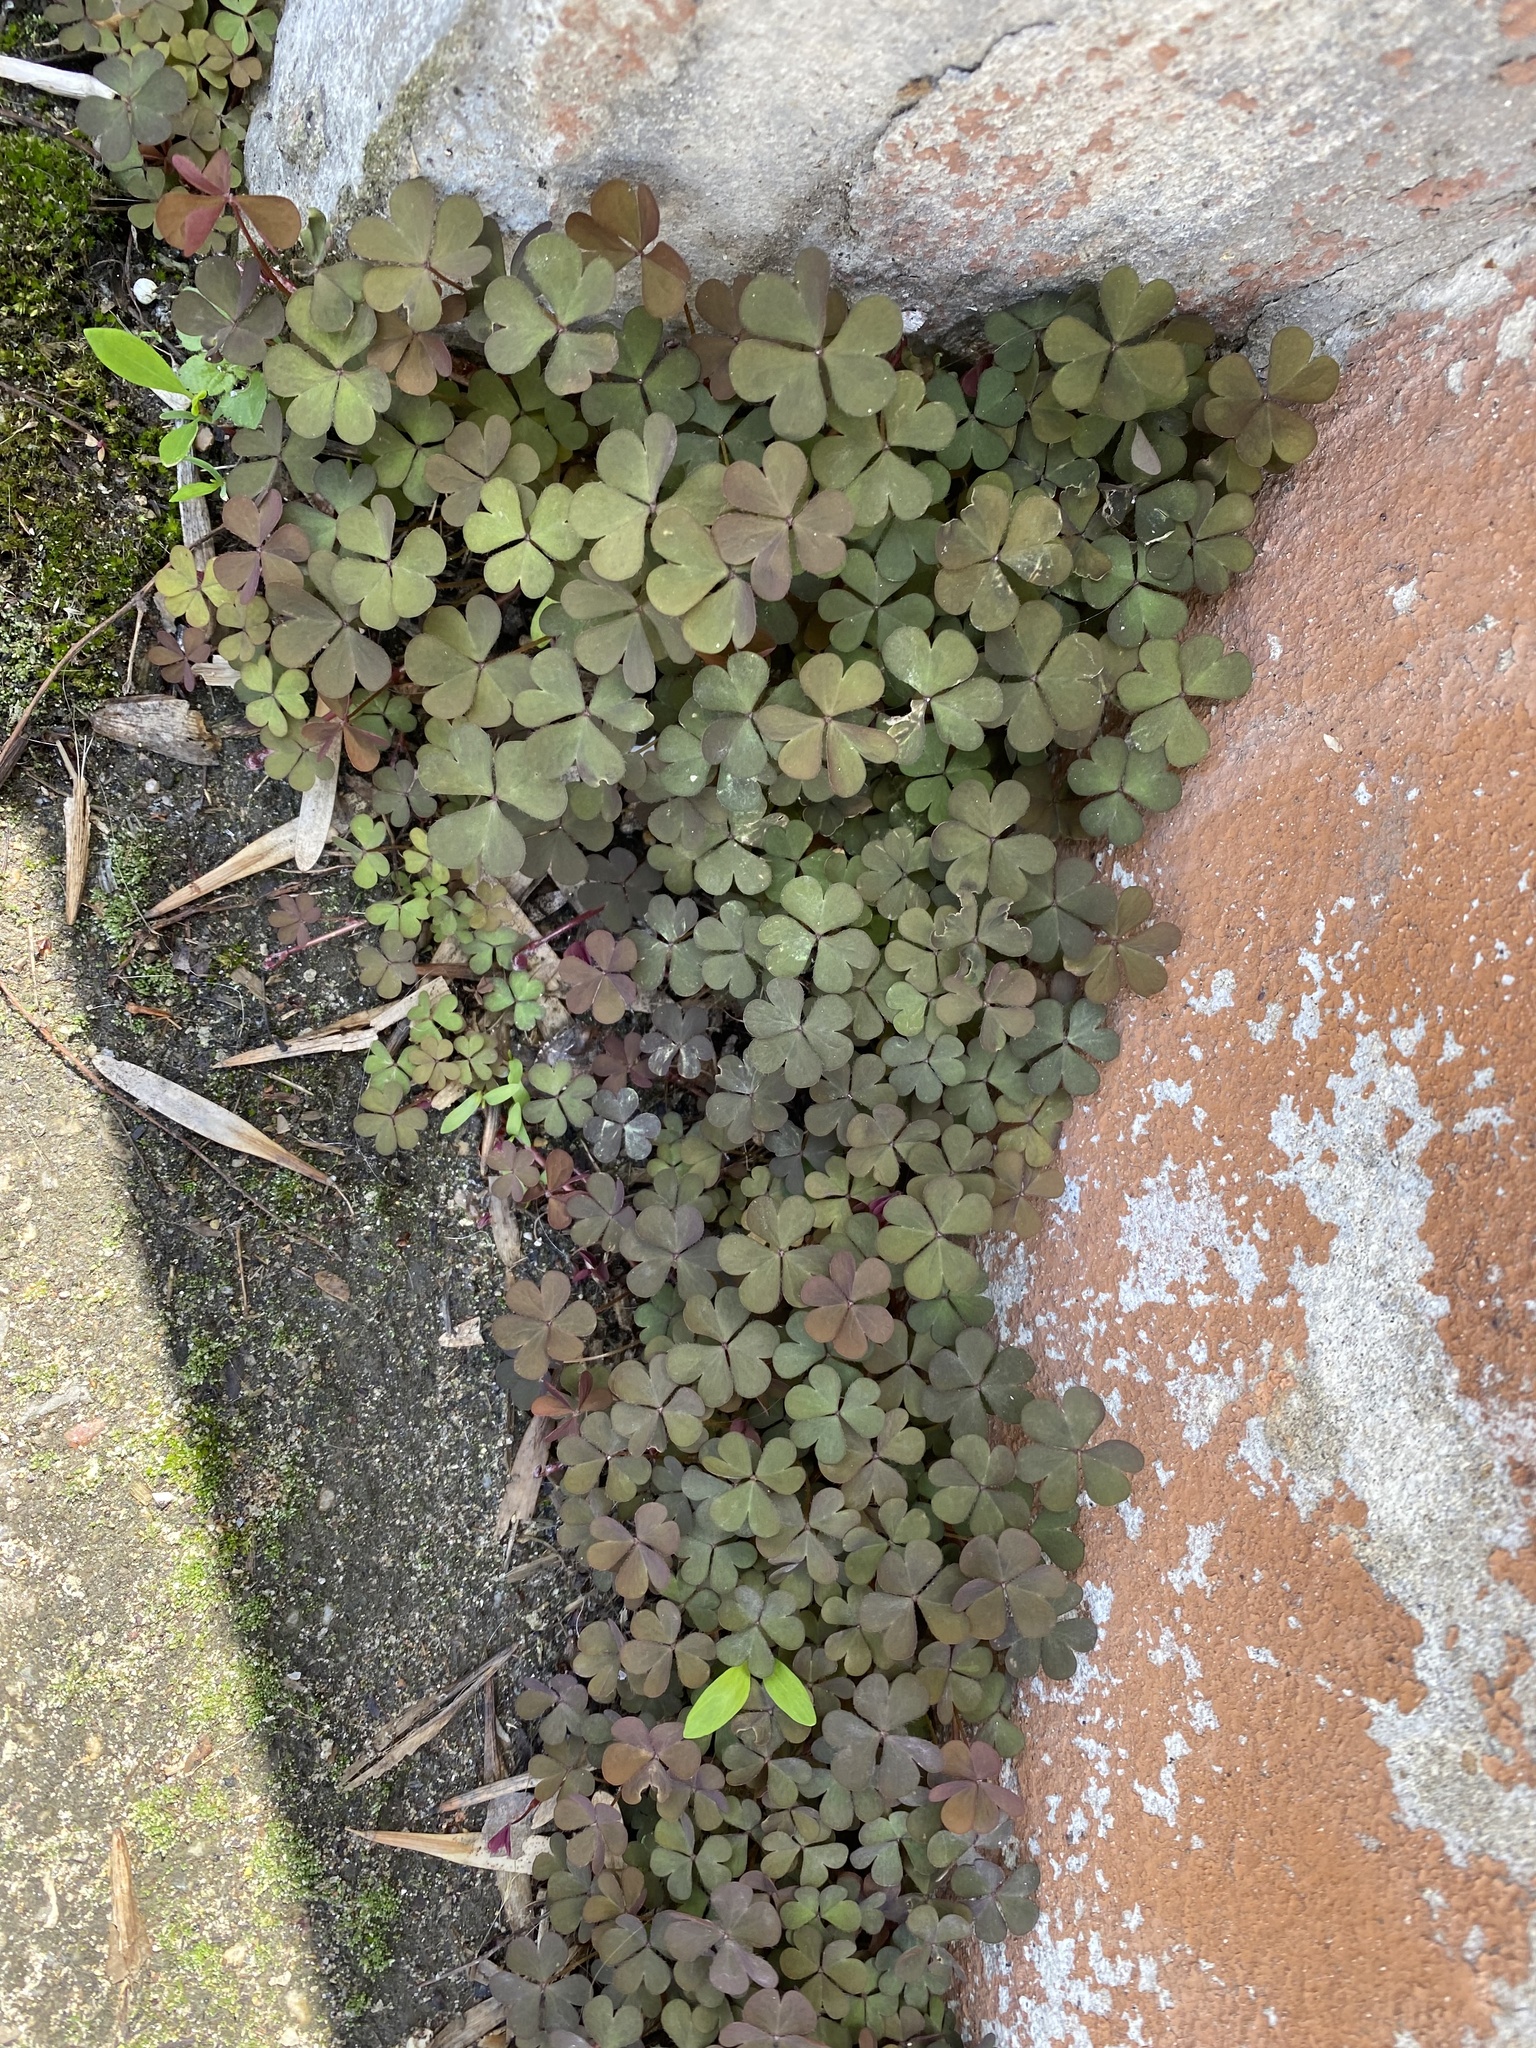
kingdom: Plantae
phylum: Tracheophyta
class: Magnoliopsida
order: Oxalidales
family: Oxalidaceae
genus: Oxalis
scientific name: Oxalis corniculata
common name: Procumbent yellow-sorrel
